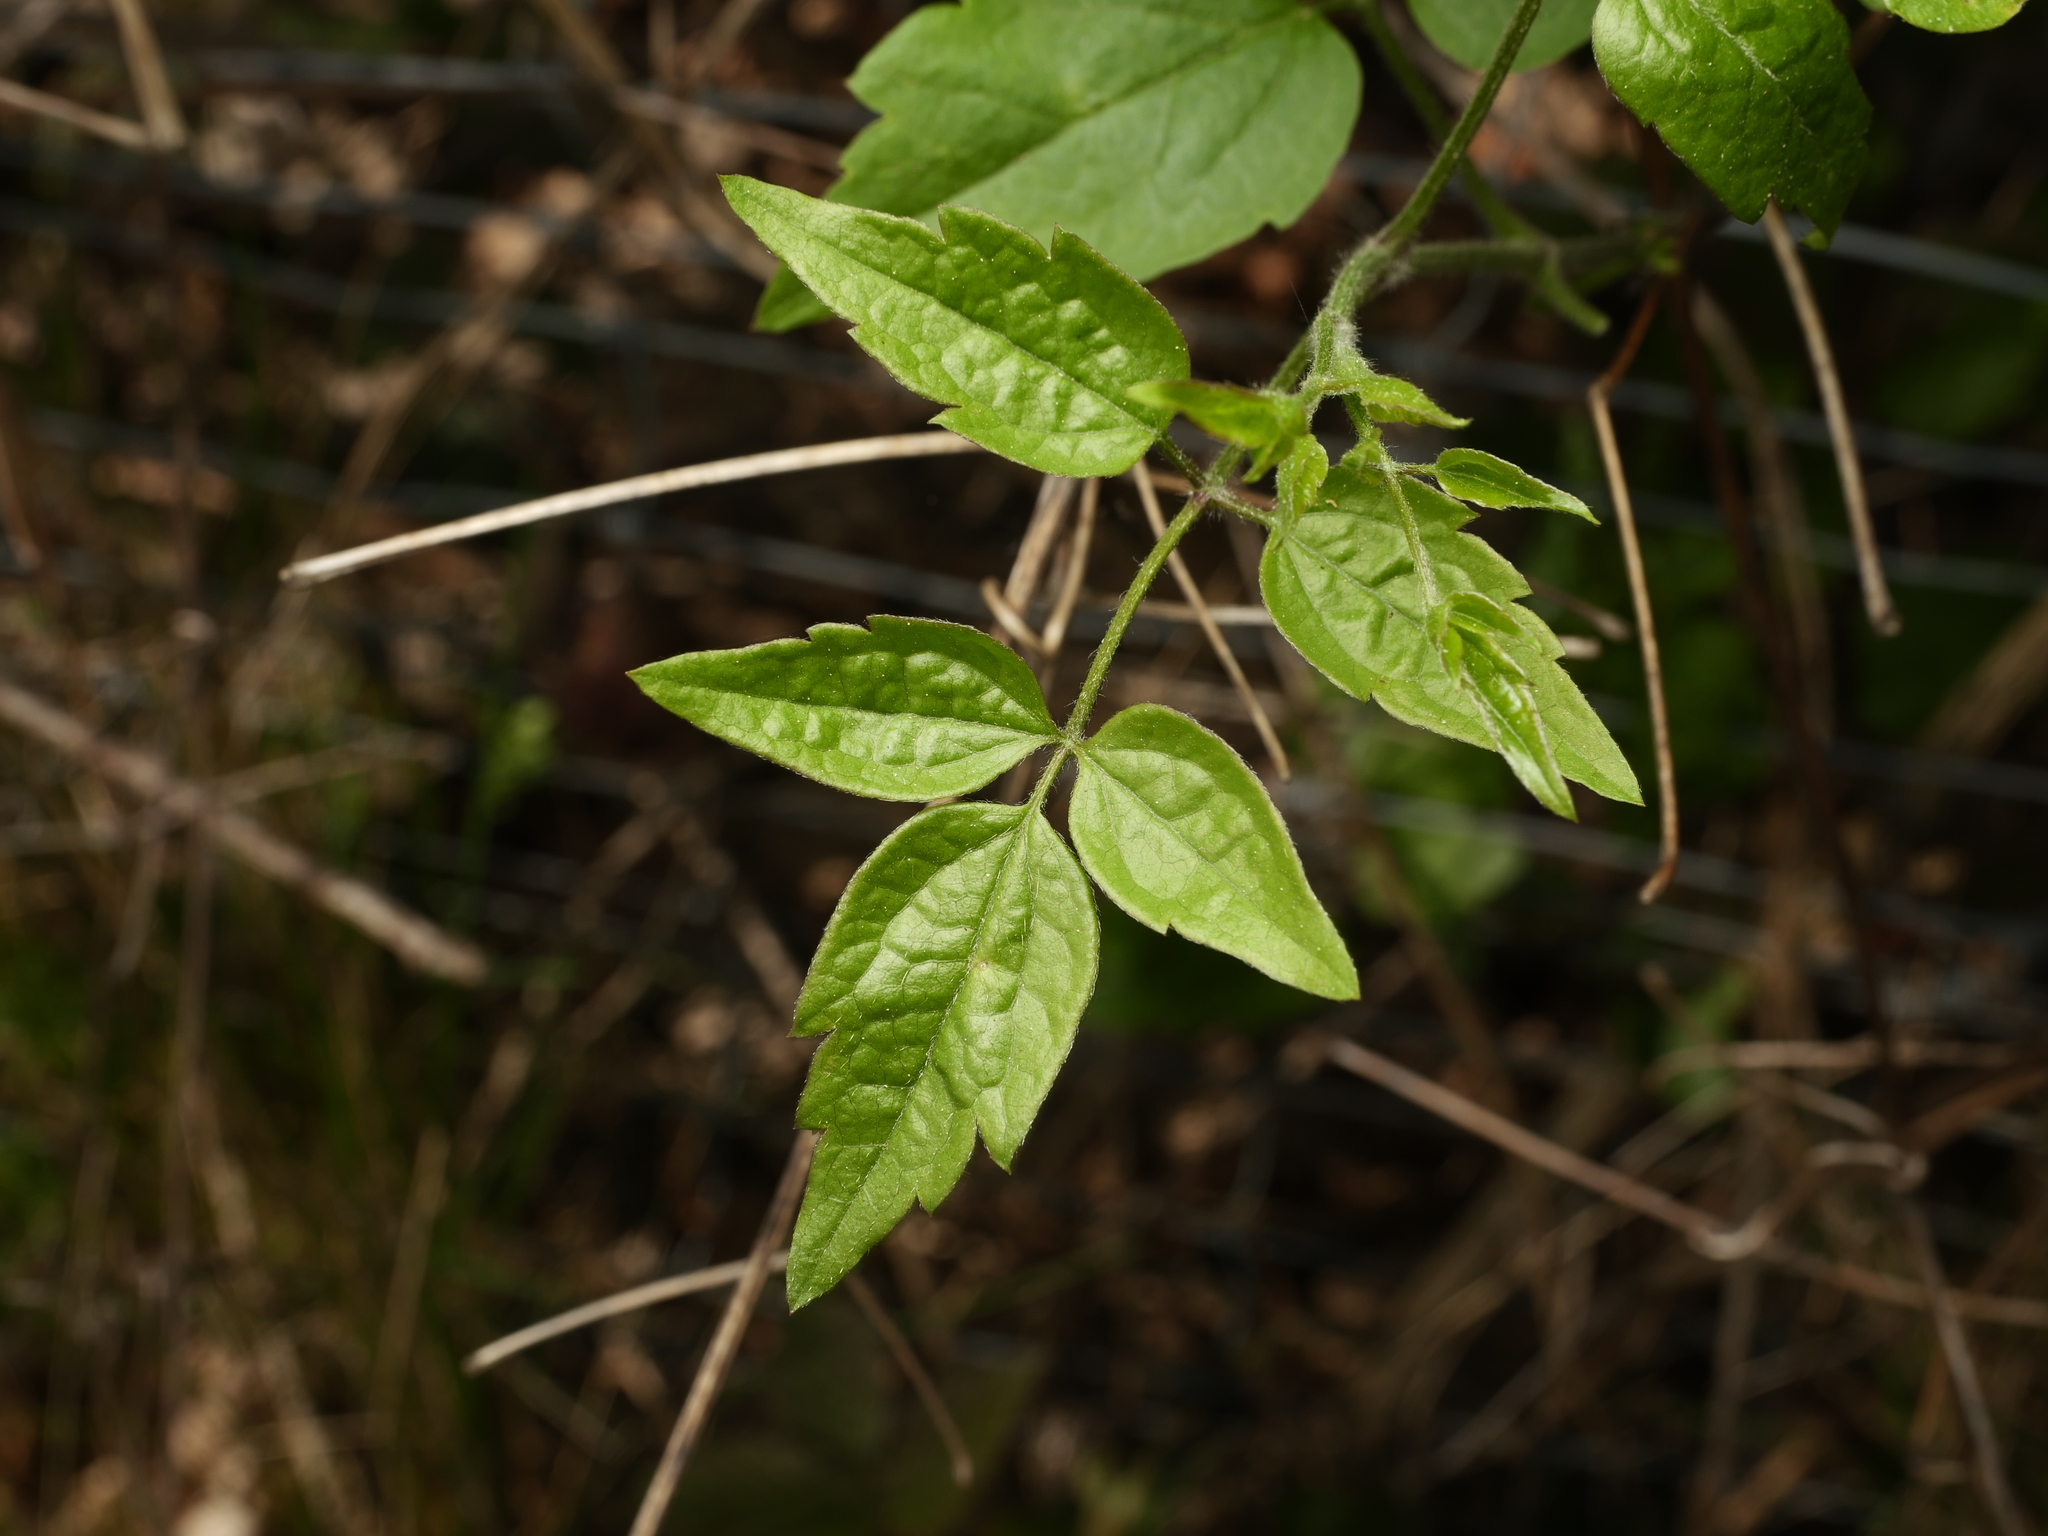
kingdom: Plantae
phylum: Tracheophyta
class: Magnoliopsida
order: Ranunculales
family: Ranunculaceae
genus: Clematis
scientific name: Clematis vitalba
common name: Evergreen clematis
